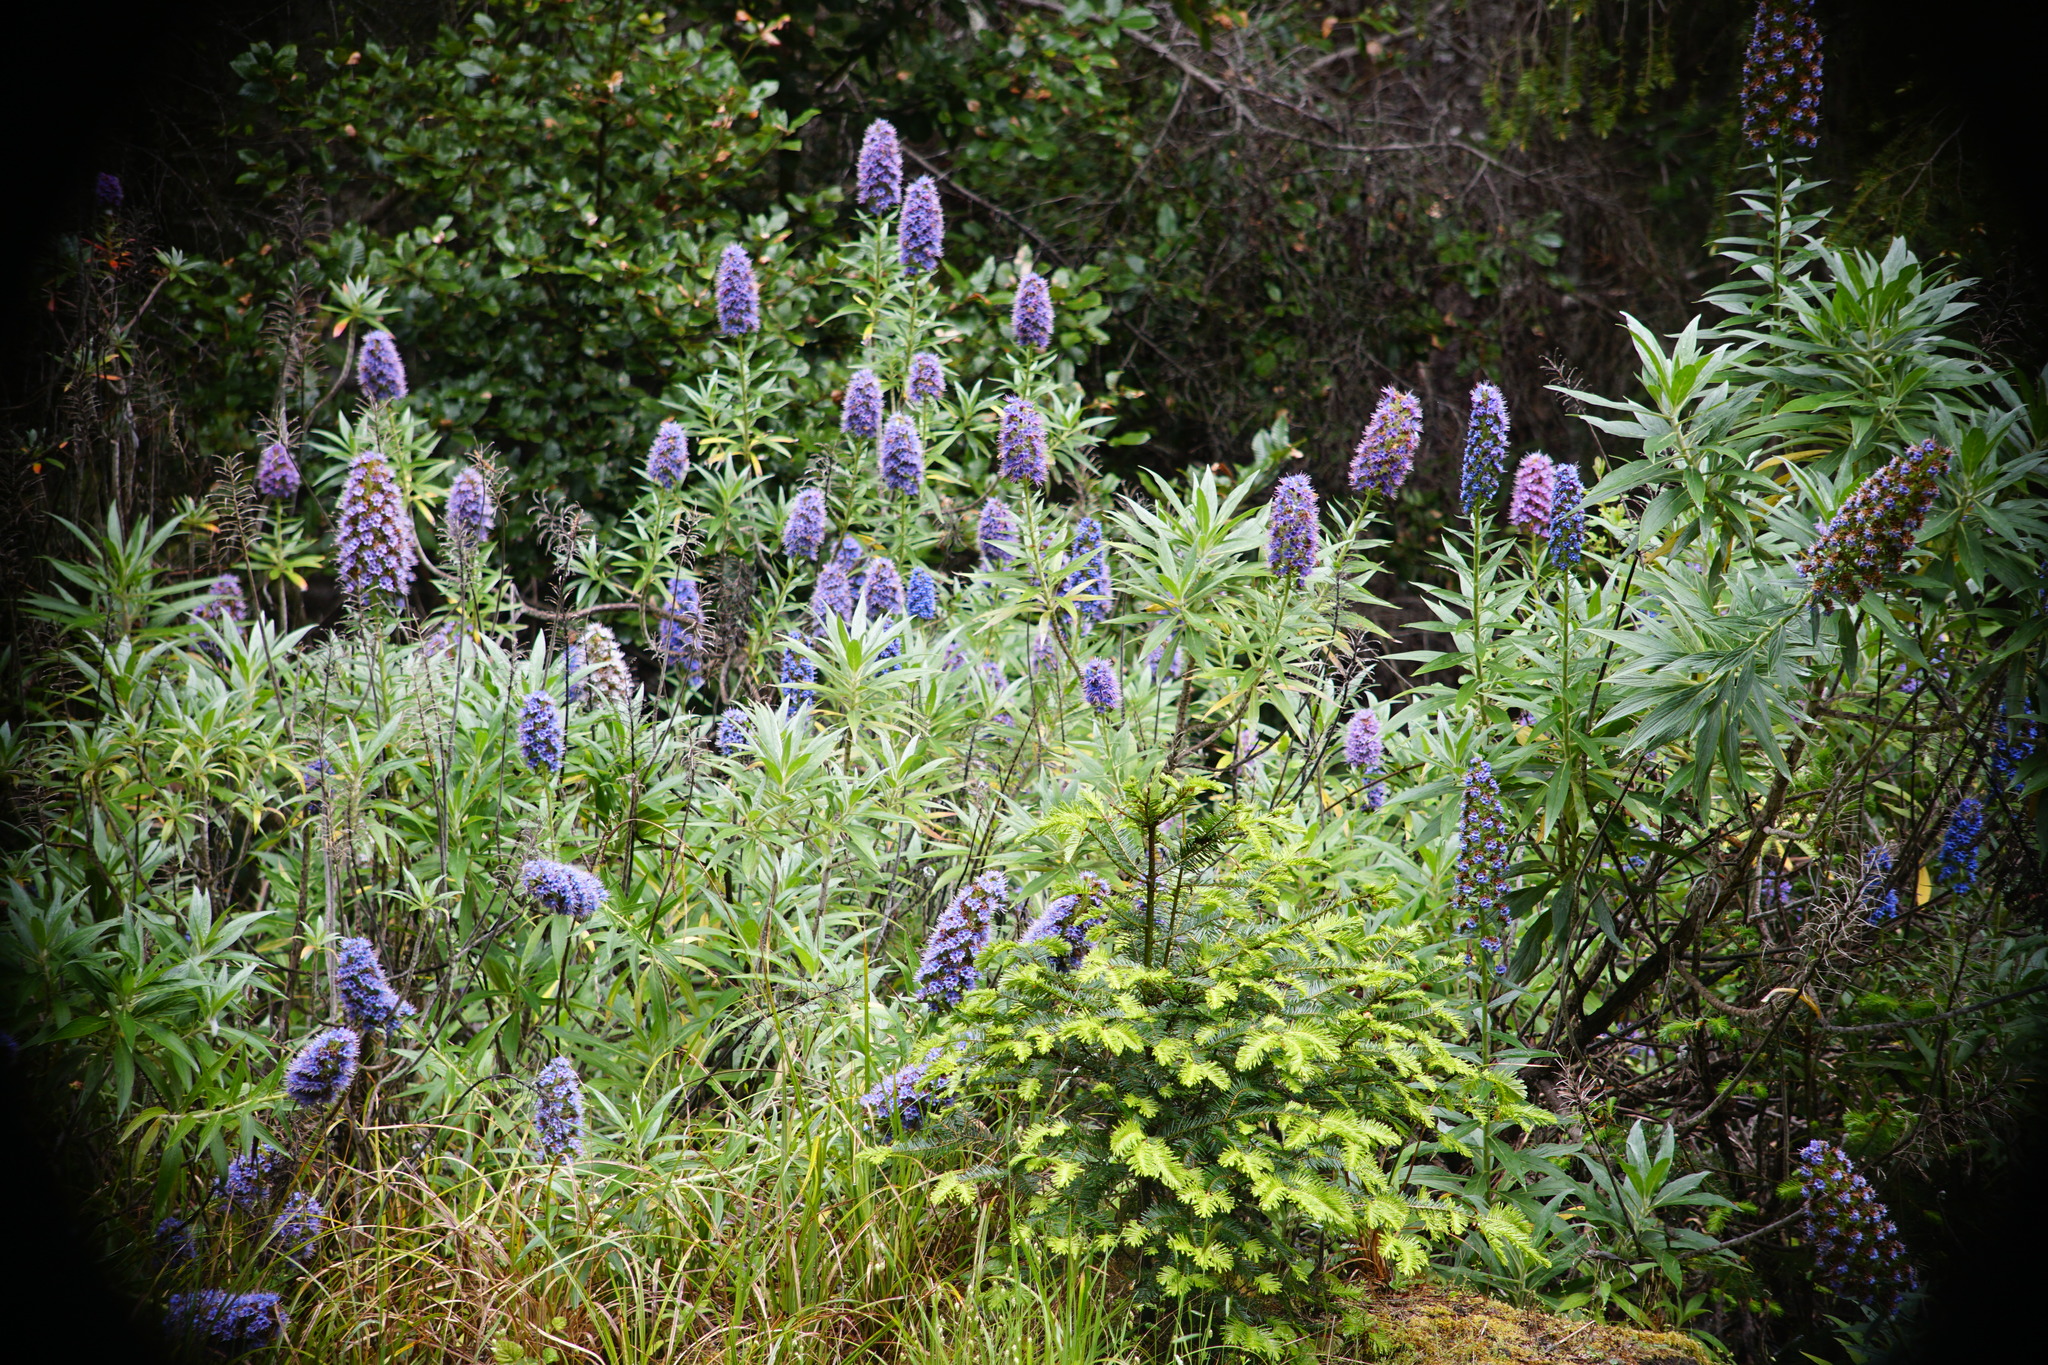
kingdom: Plantae
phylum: Tracheophyta
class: Magnoliopsida
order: Boraginales
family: Boraginaceae
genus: Echium
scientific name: Echium candicans
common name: Pride of madeira
